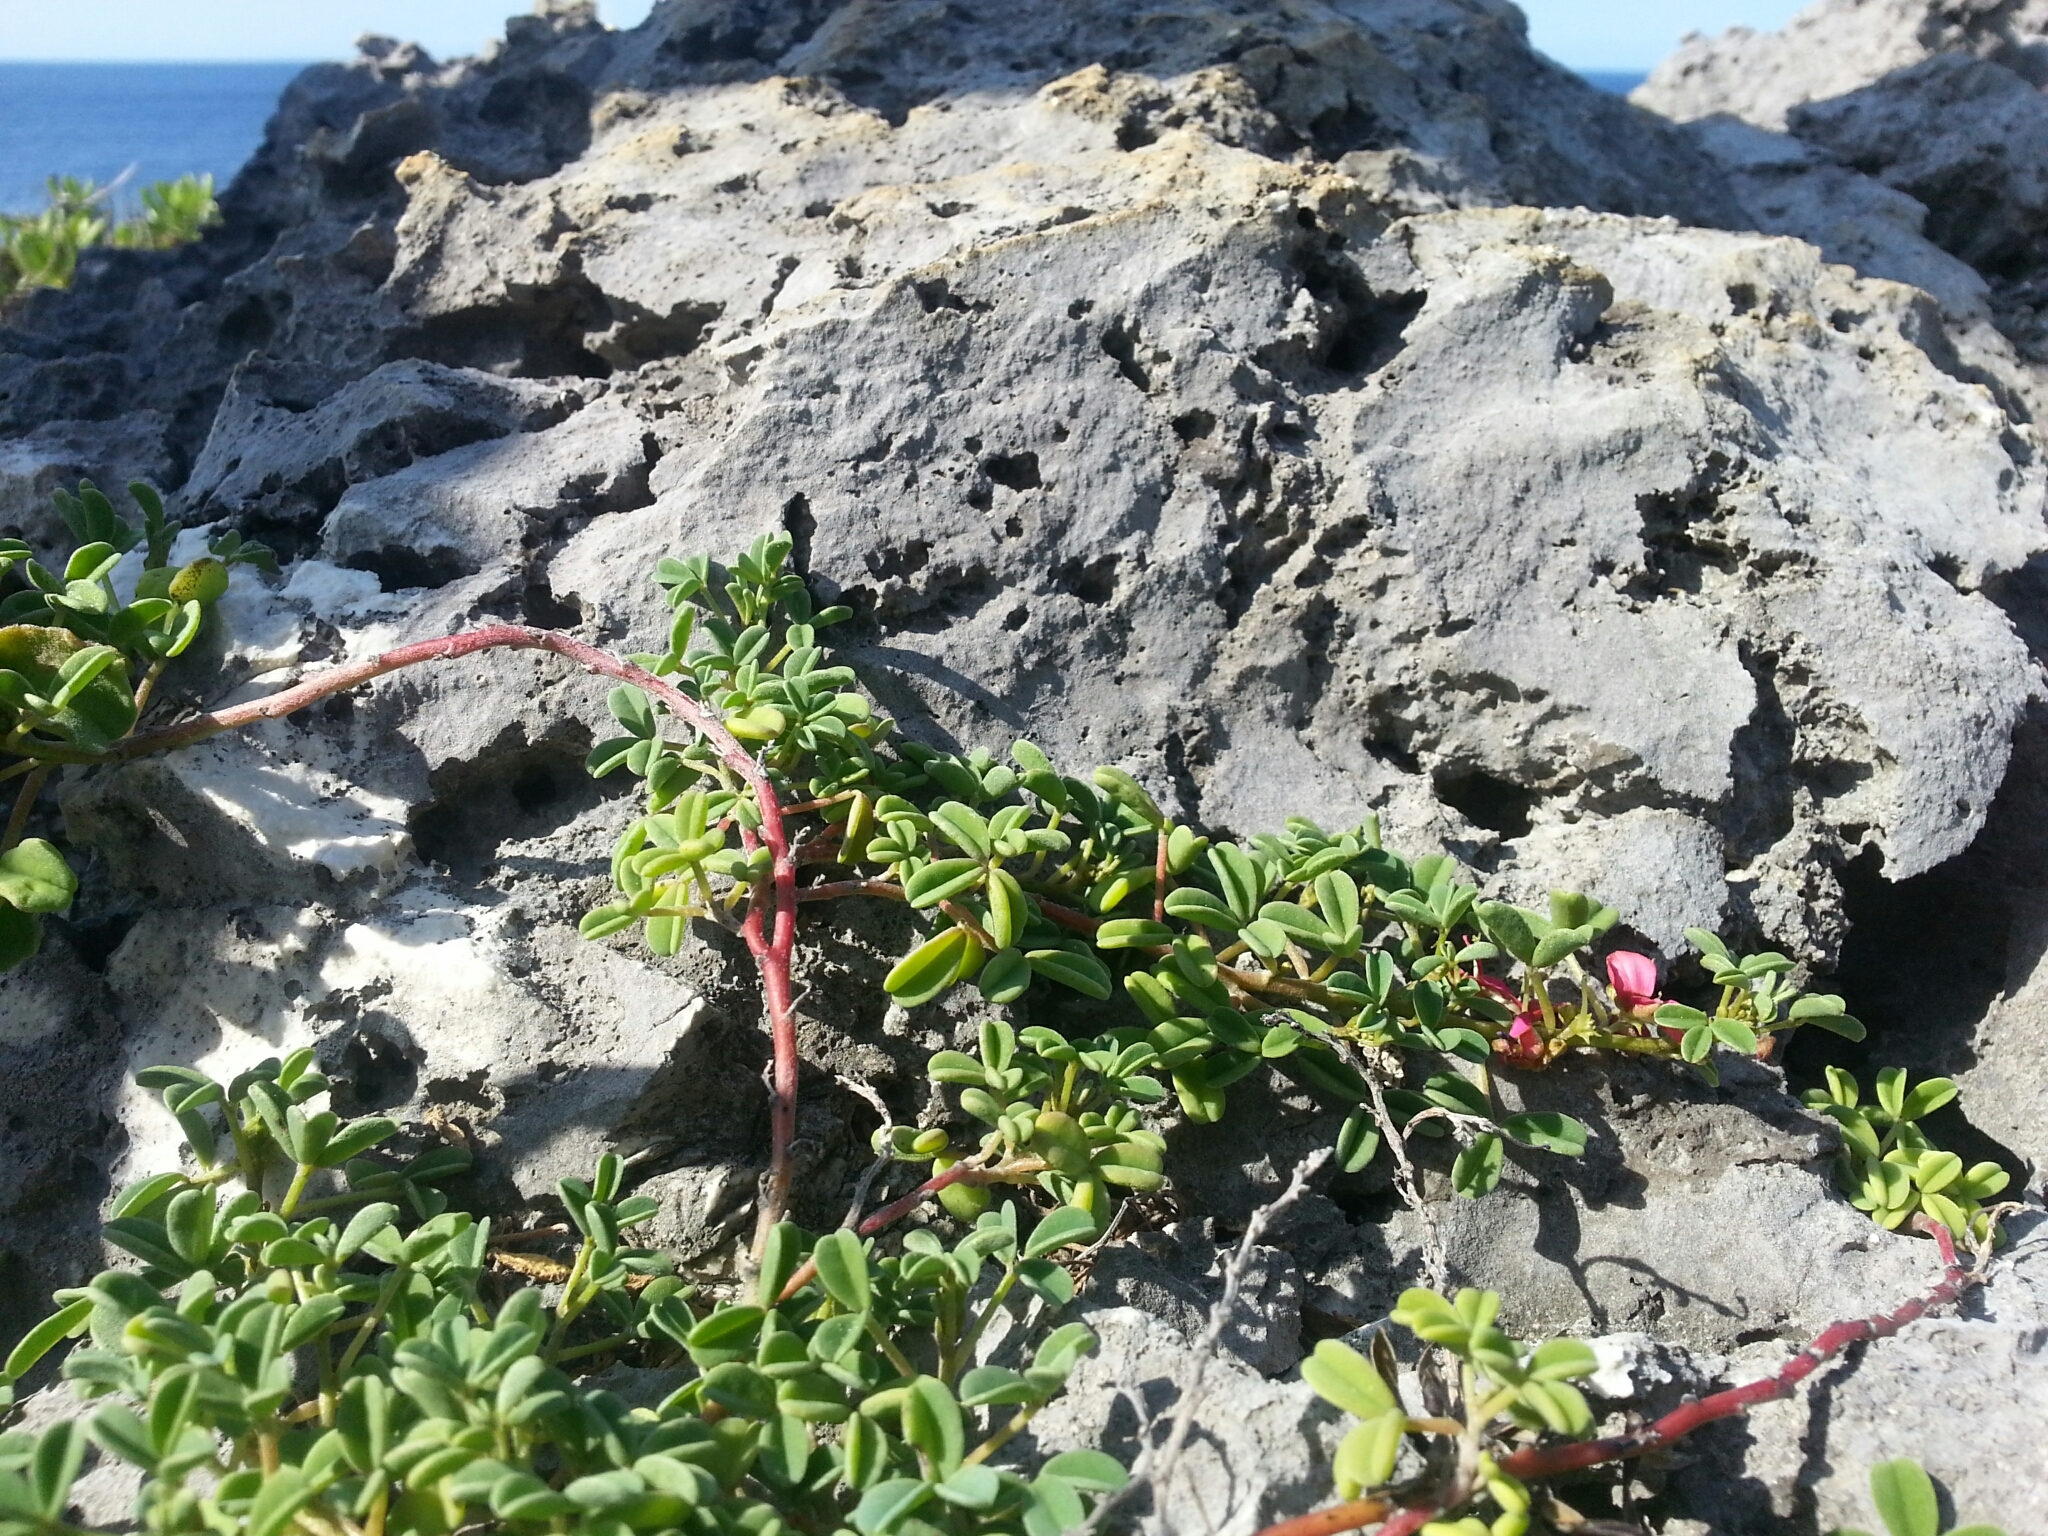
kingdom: Plantae
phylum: Tracheophyta
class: Magnoliopsida
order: Fabales
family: Fabaceae
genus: Indigofera
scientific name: Indigofera trifoliata
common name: Threeleaf indigo
